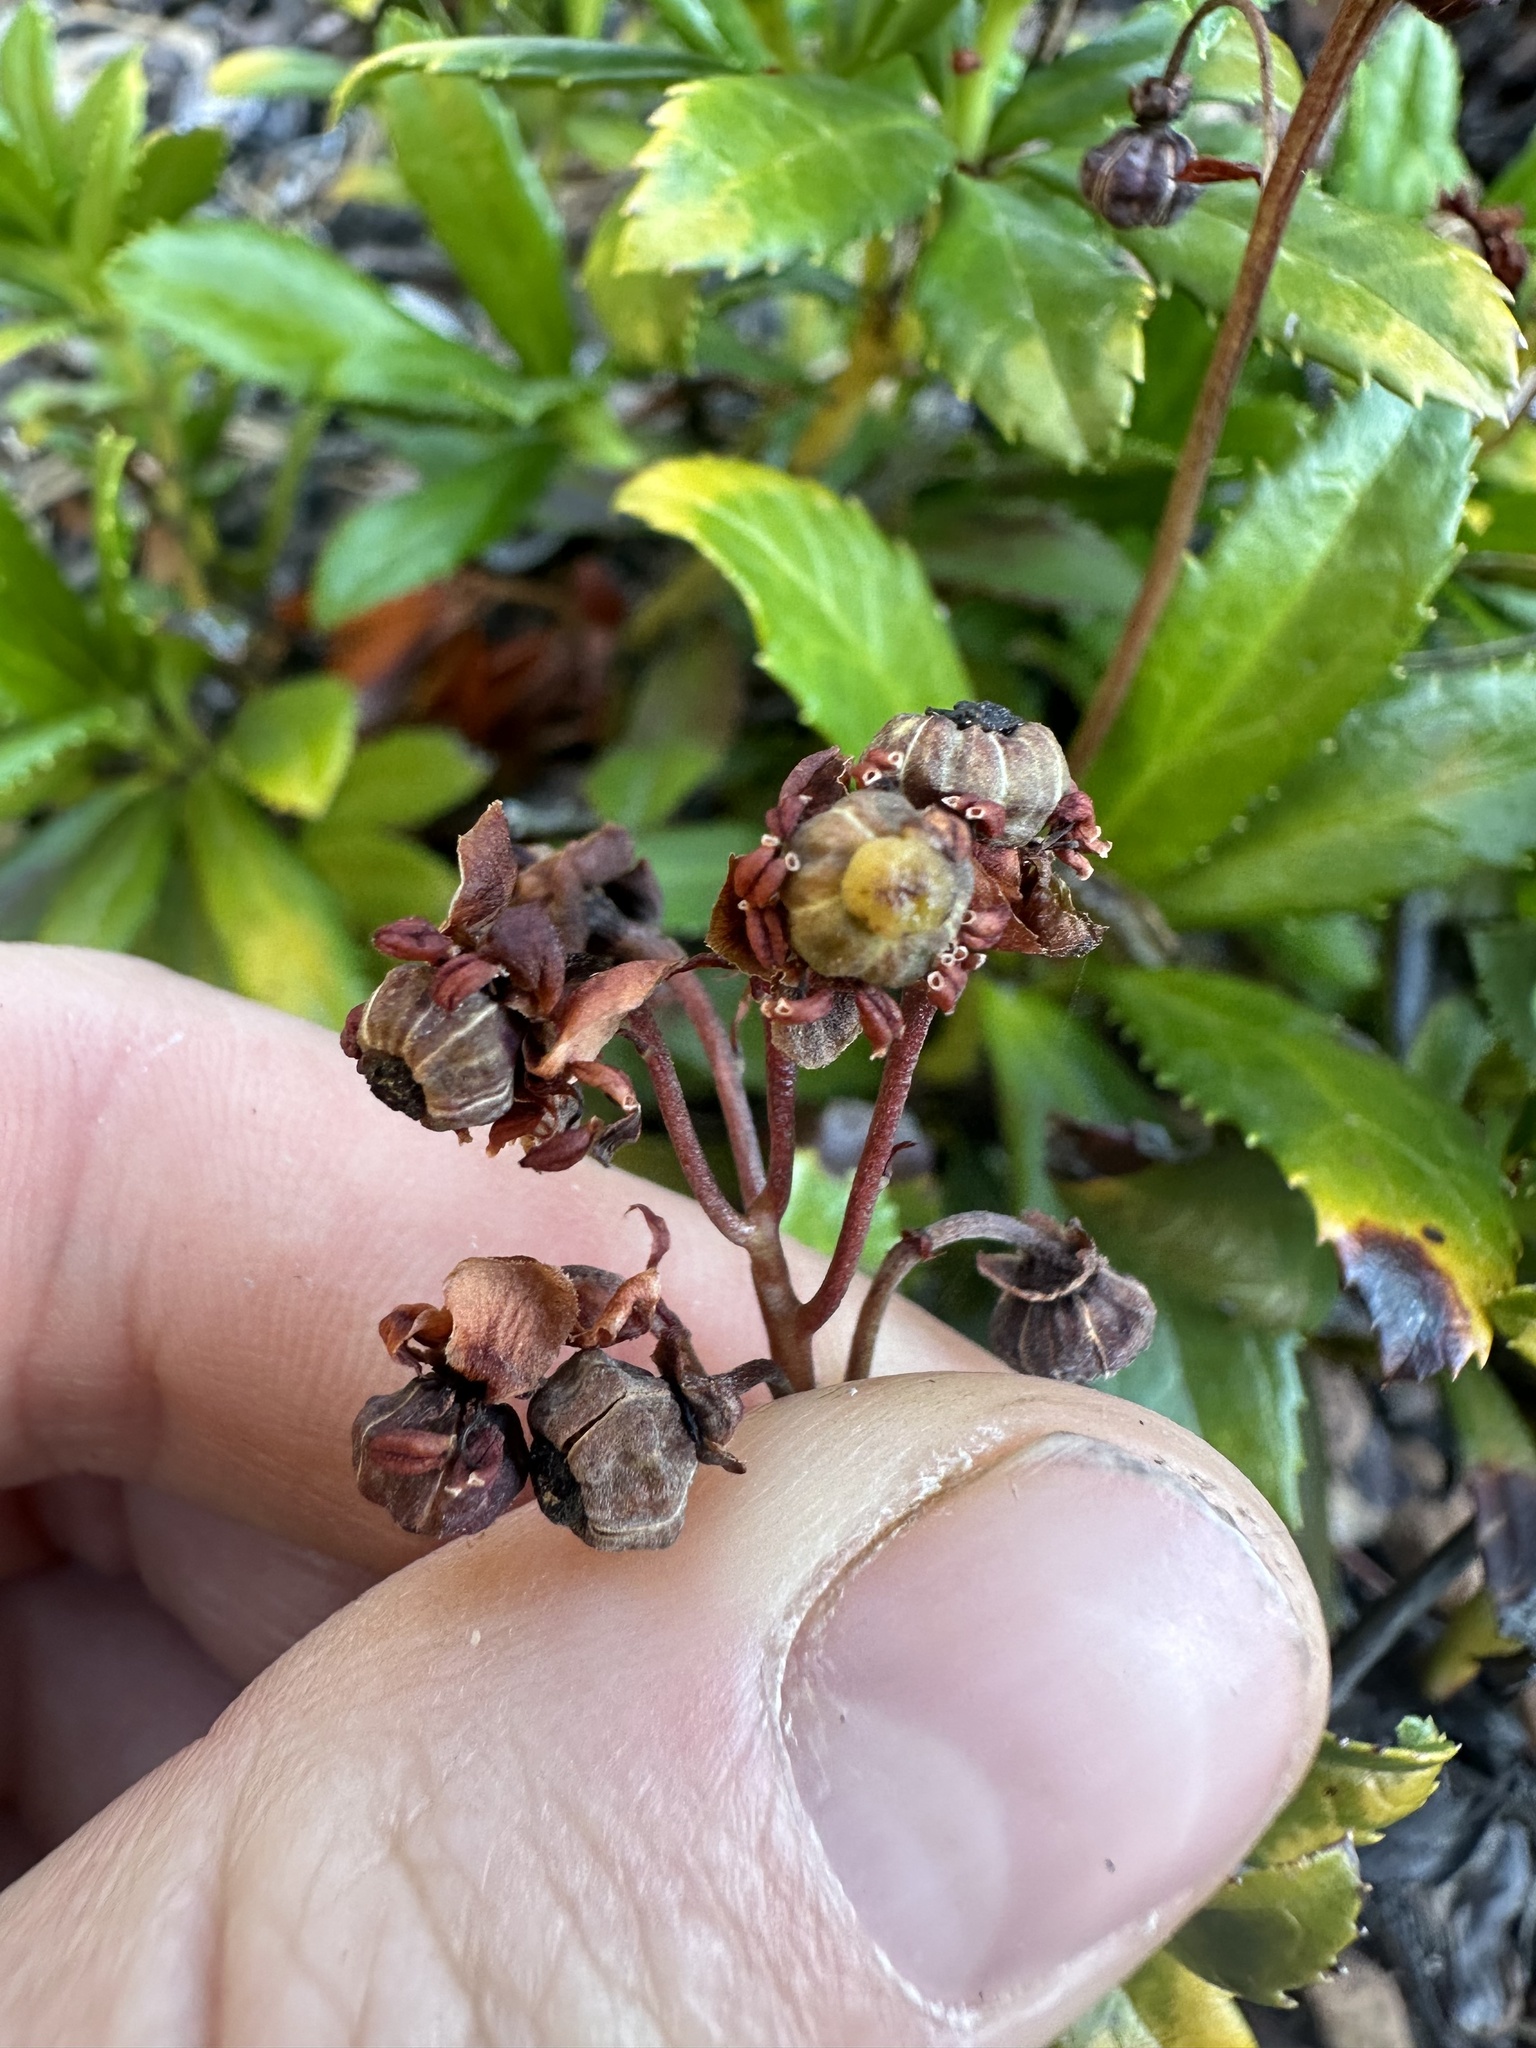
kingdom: Plantae
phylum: Tracheophyta
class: Magnoliopsida
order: Ericales
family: Ericaceae
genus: Chimaphila
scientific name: Chimaphila umbellata
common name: Pipsissewa
